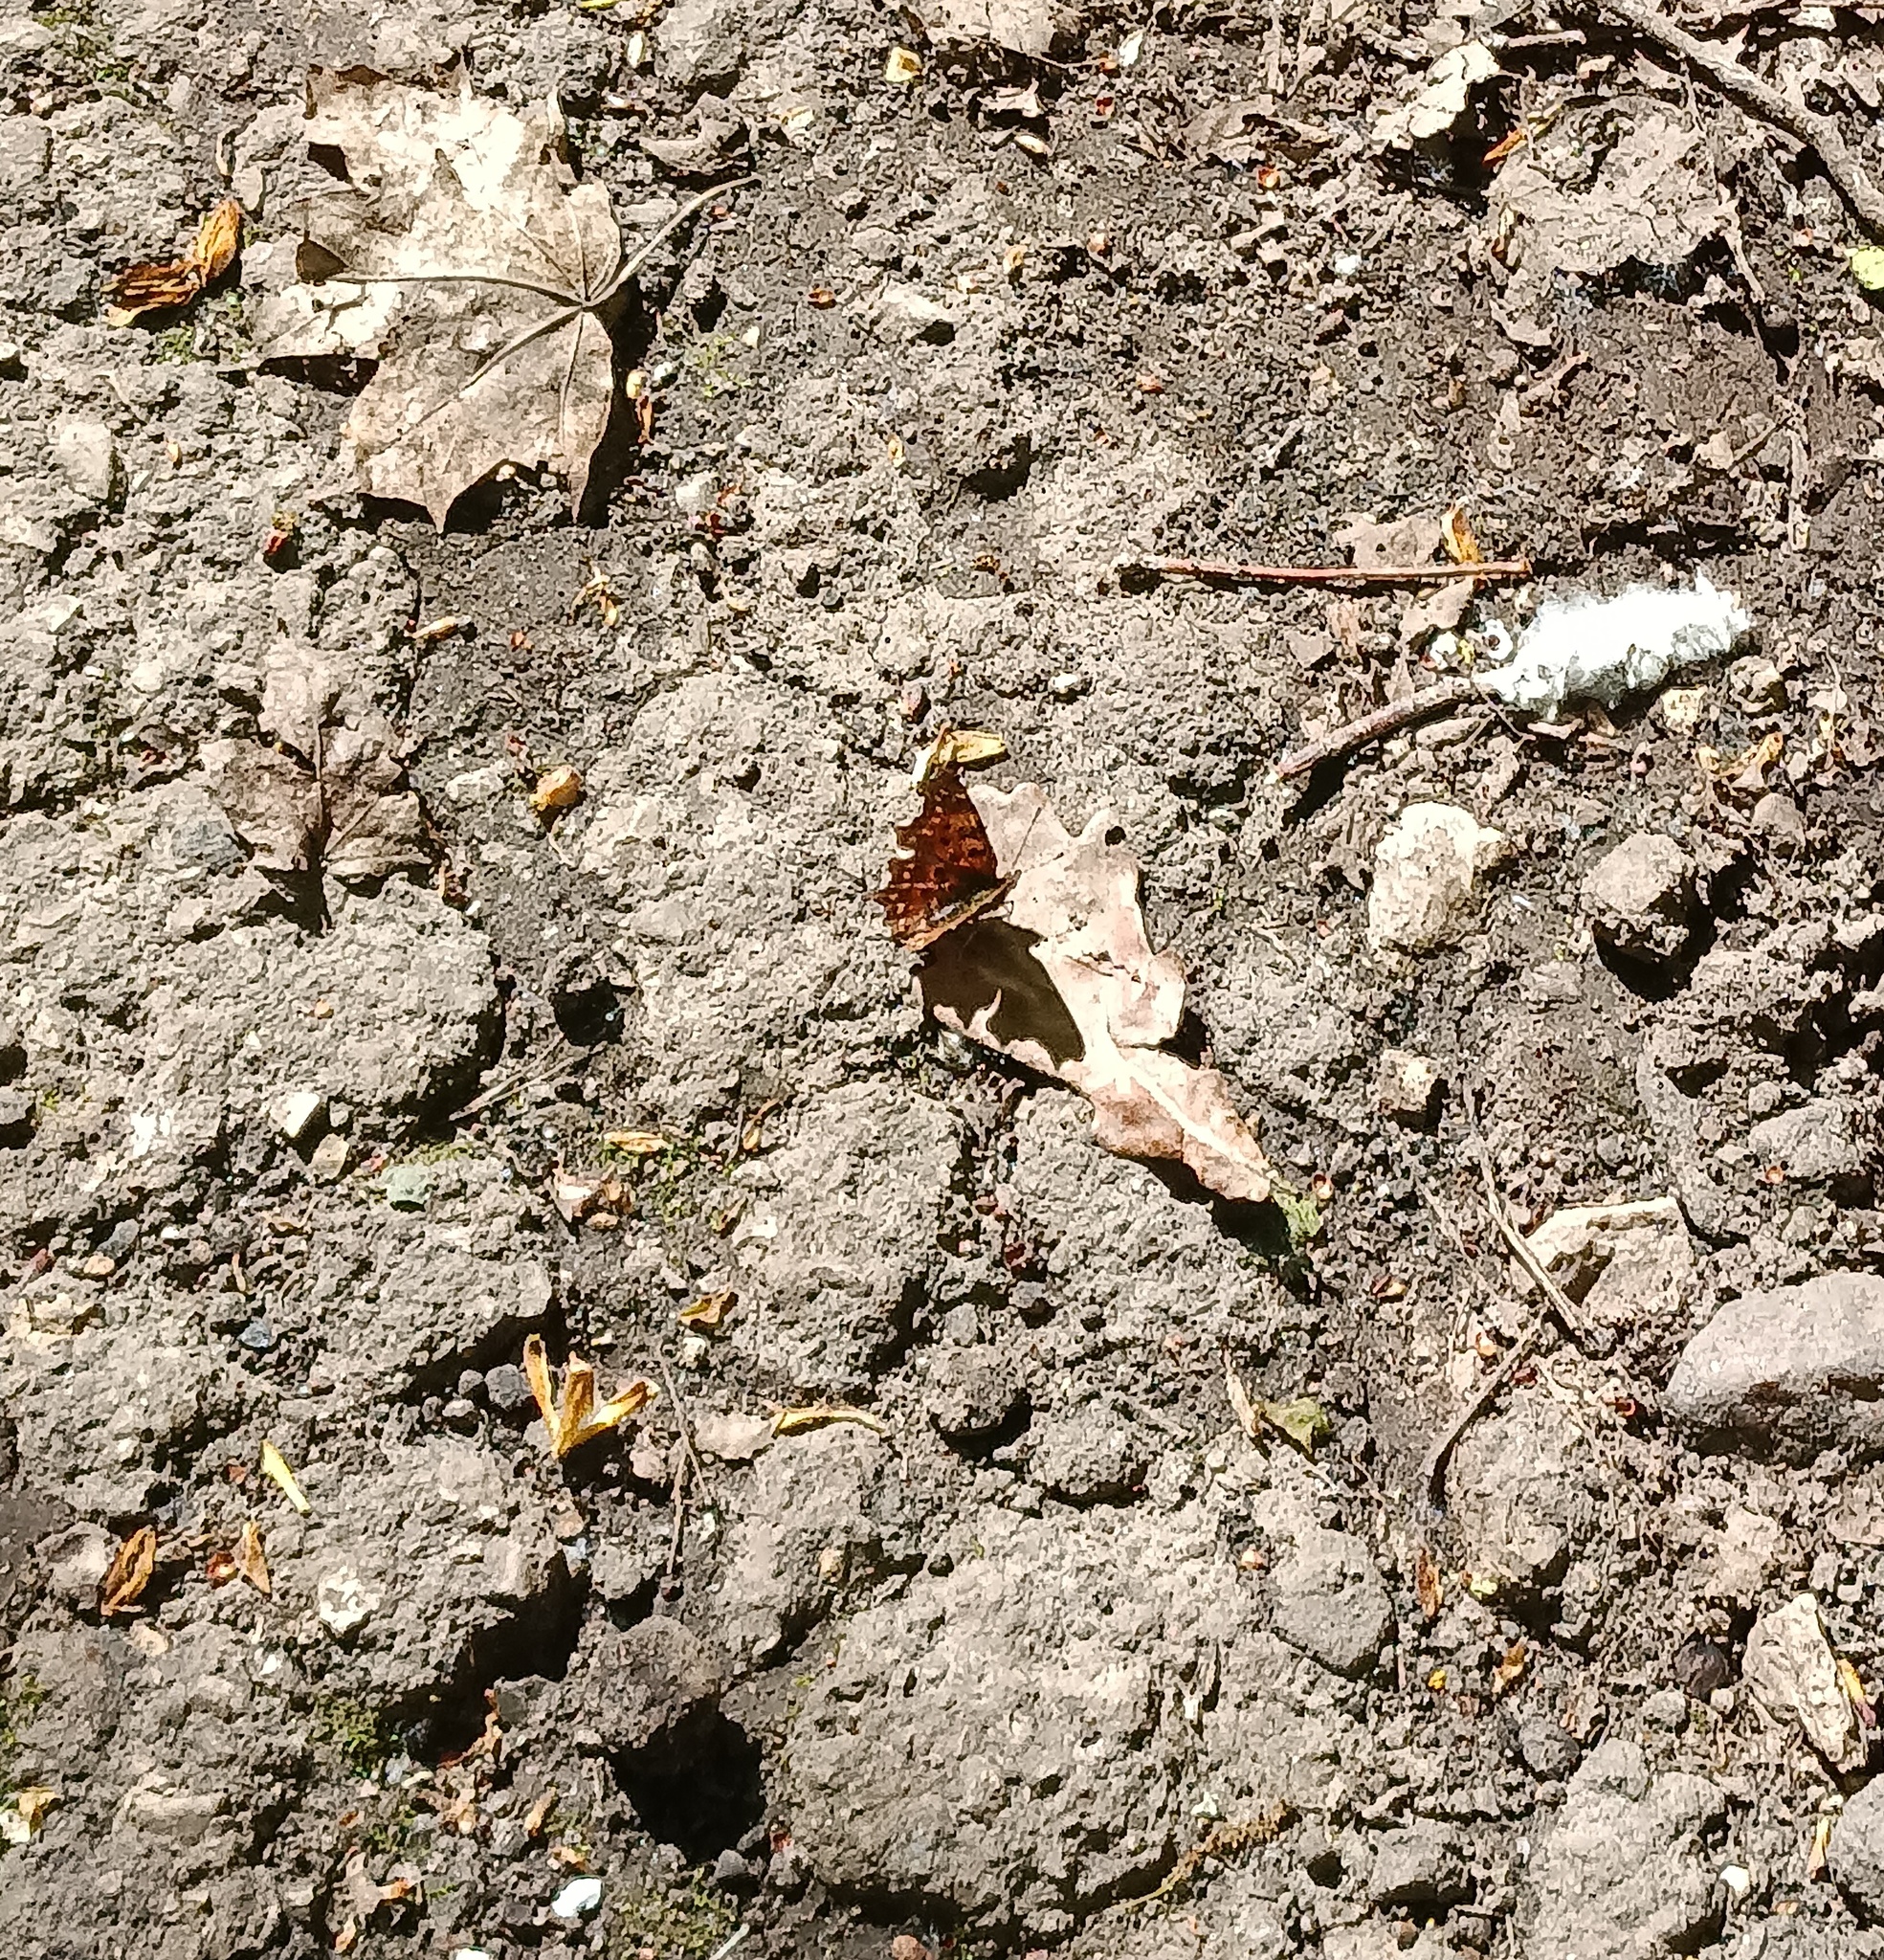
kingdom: Animalia
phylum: Arthropoda
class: Insecta
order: Lepidoptera
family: Nymphalidae
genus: Polygonia
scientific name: Polygonia c-album
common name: Comma
